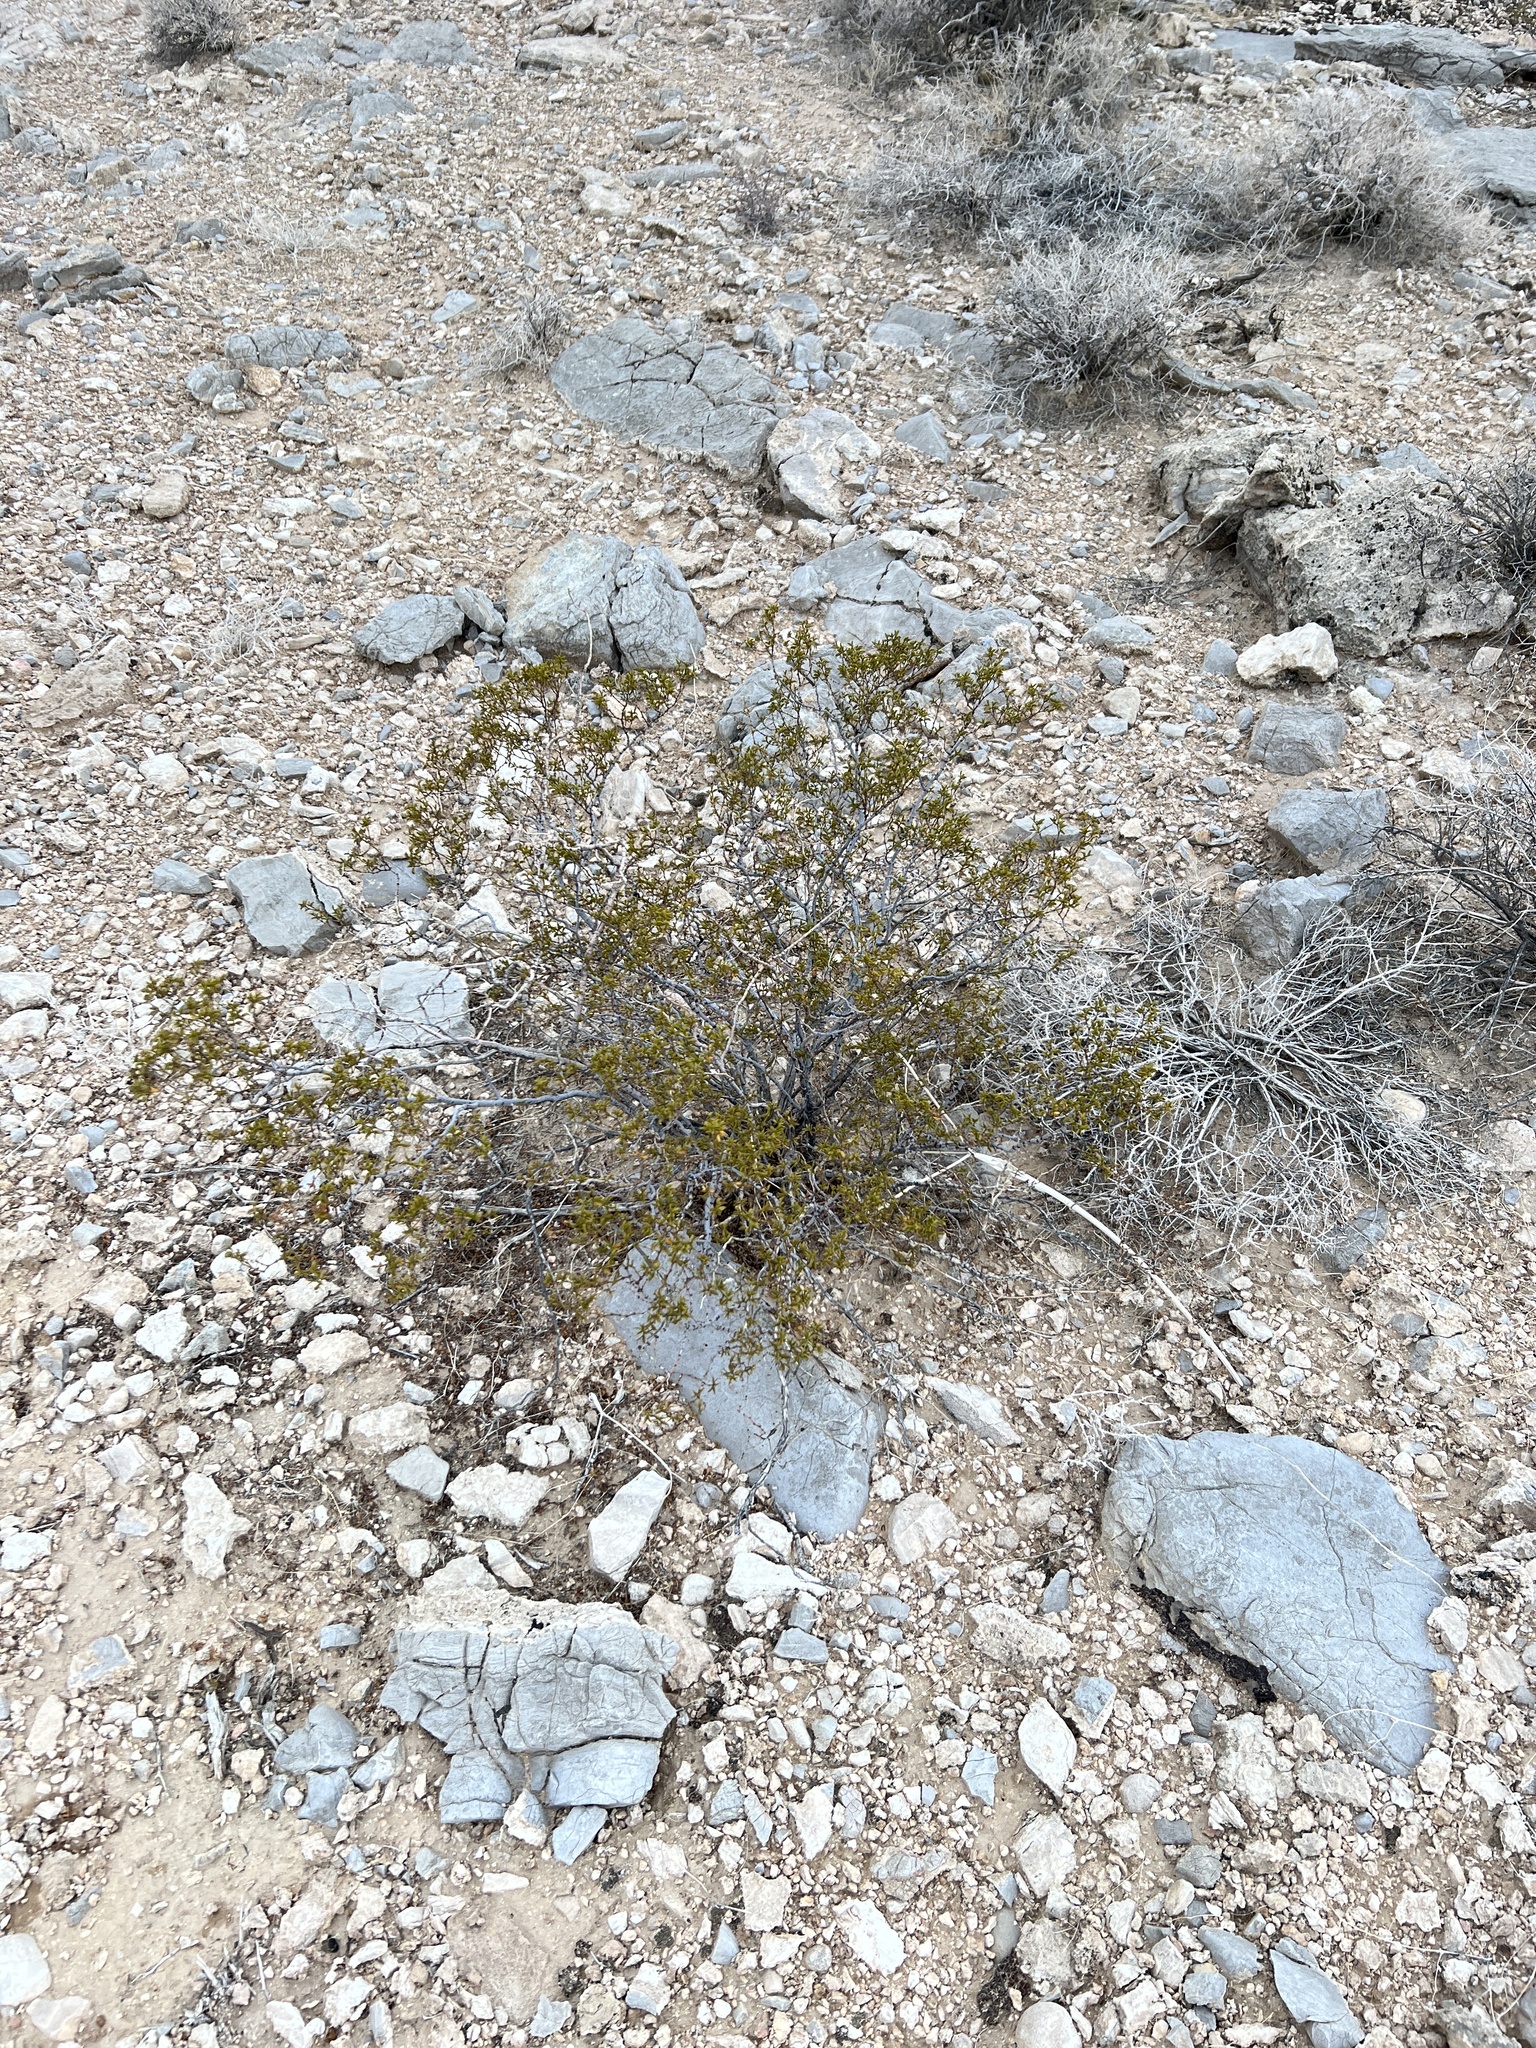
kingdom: Plantae
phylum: Tracheophyta
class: Magnoliopsida
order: Zygophyllales
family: Zygophyllaceae
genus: Larrea
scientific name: Larrea tridentata
